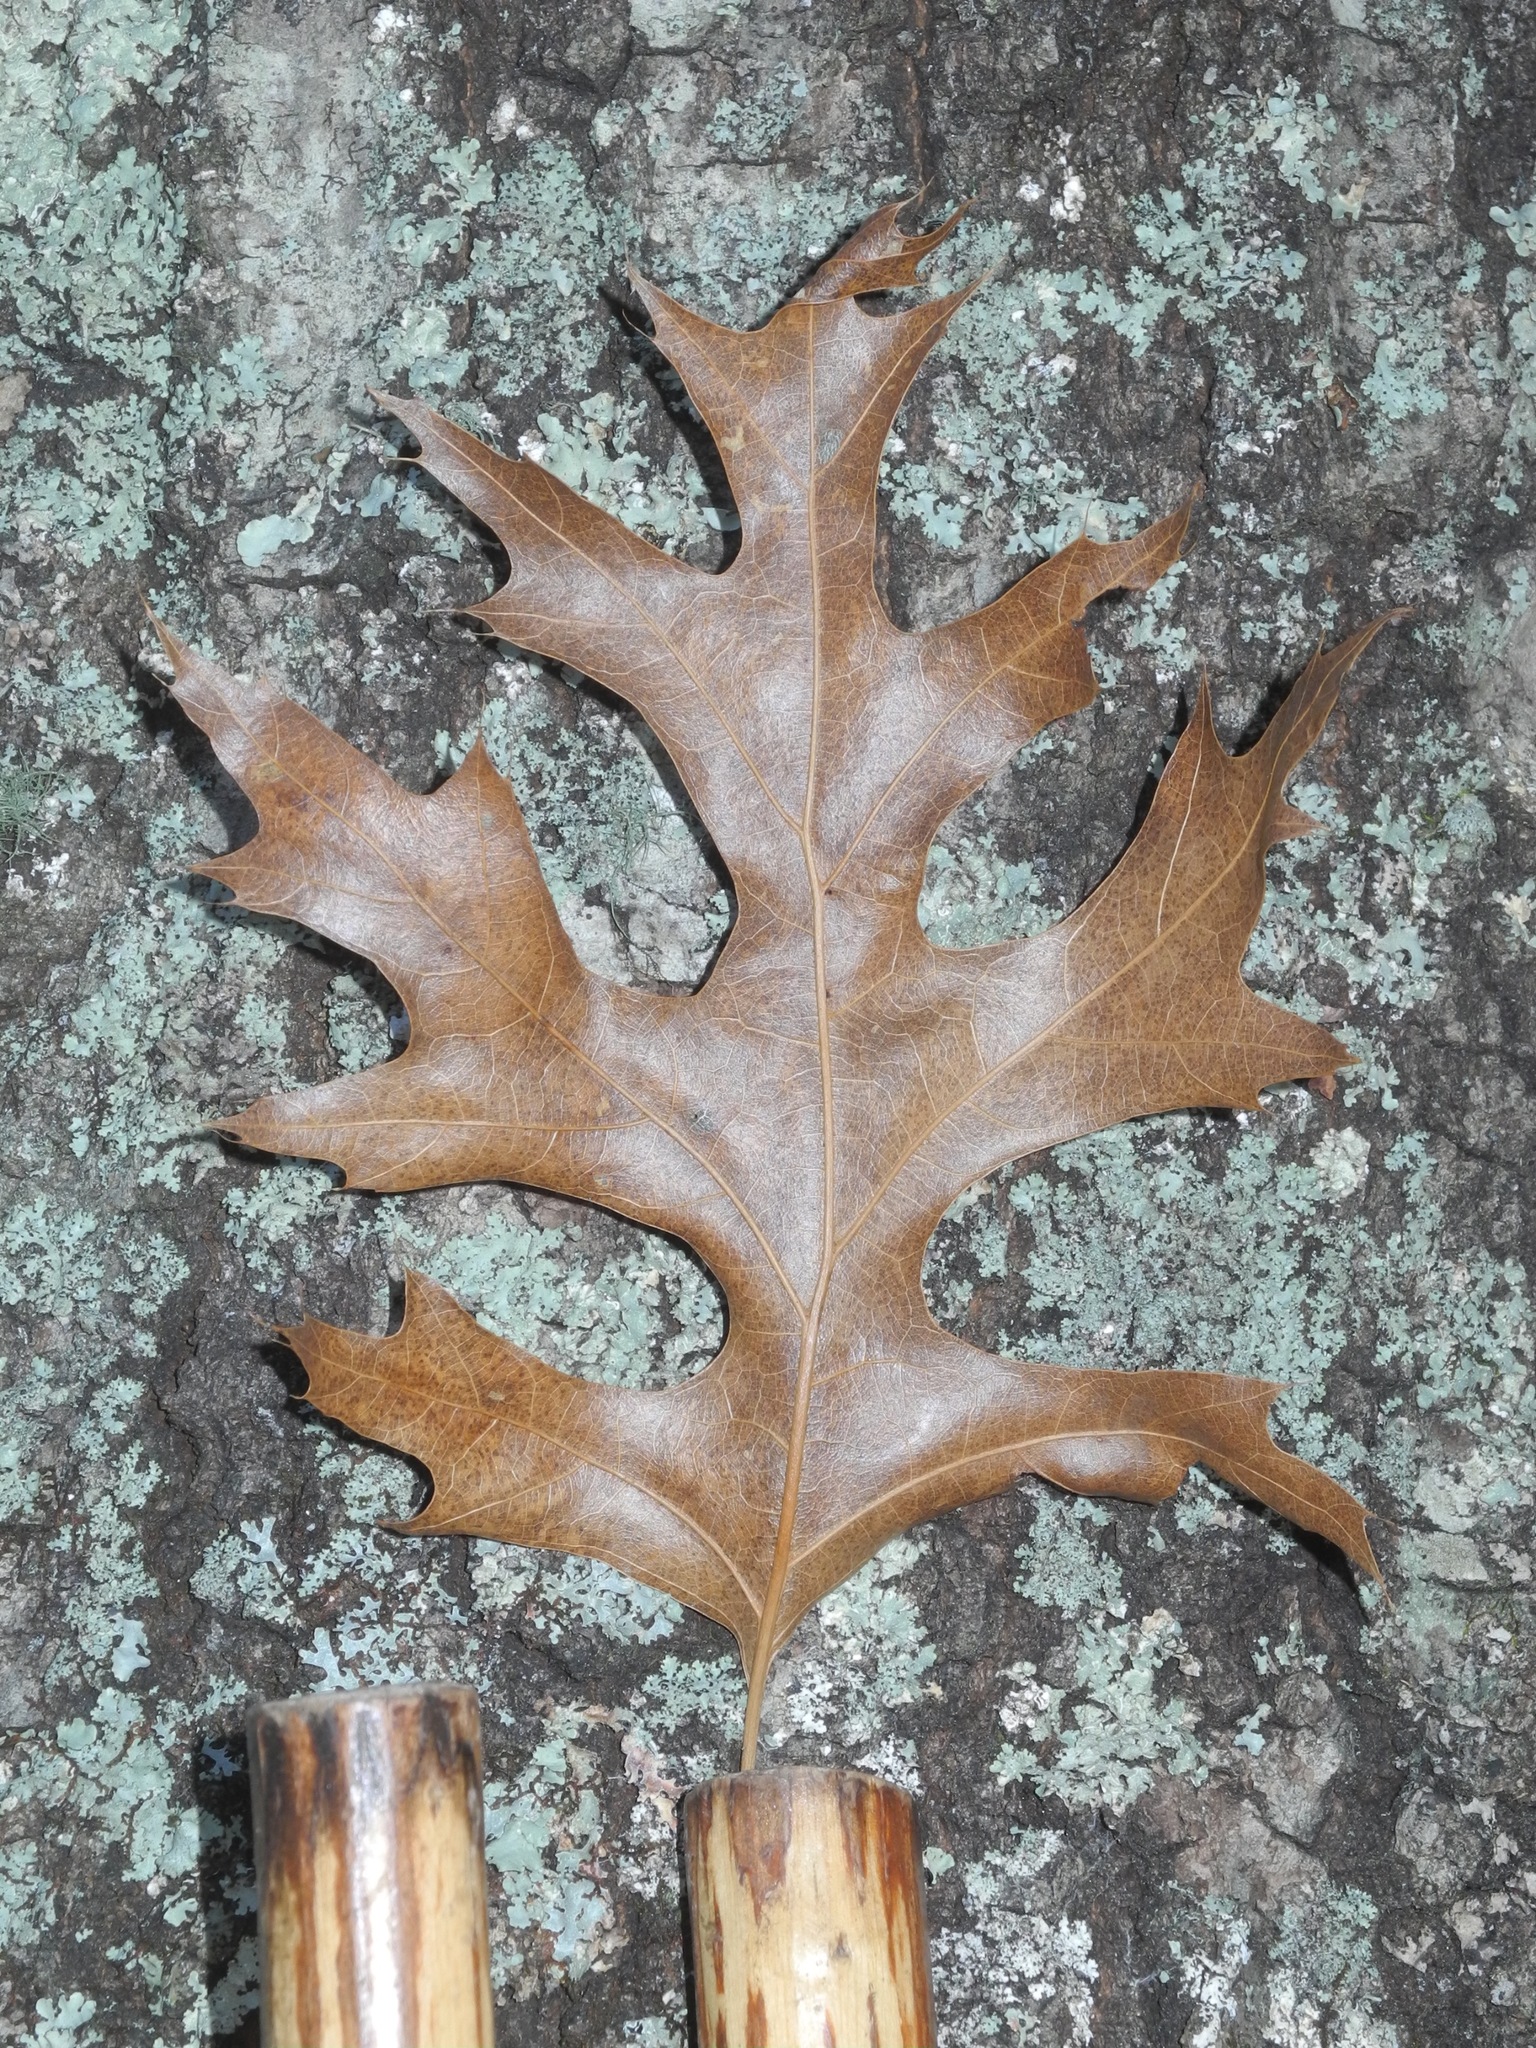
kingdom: Plantae
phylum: Tracheophyta
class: Magnoliopsida
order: Fagales
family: Fagaceae
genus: Quercus
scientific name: Quercus coccinea
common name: Scarlet oak
